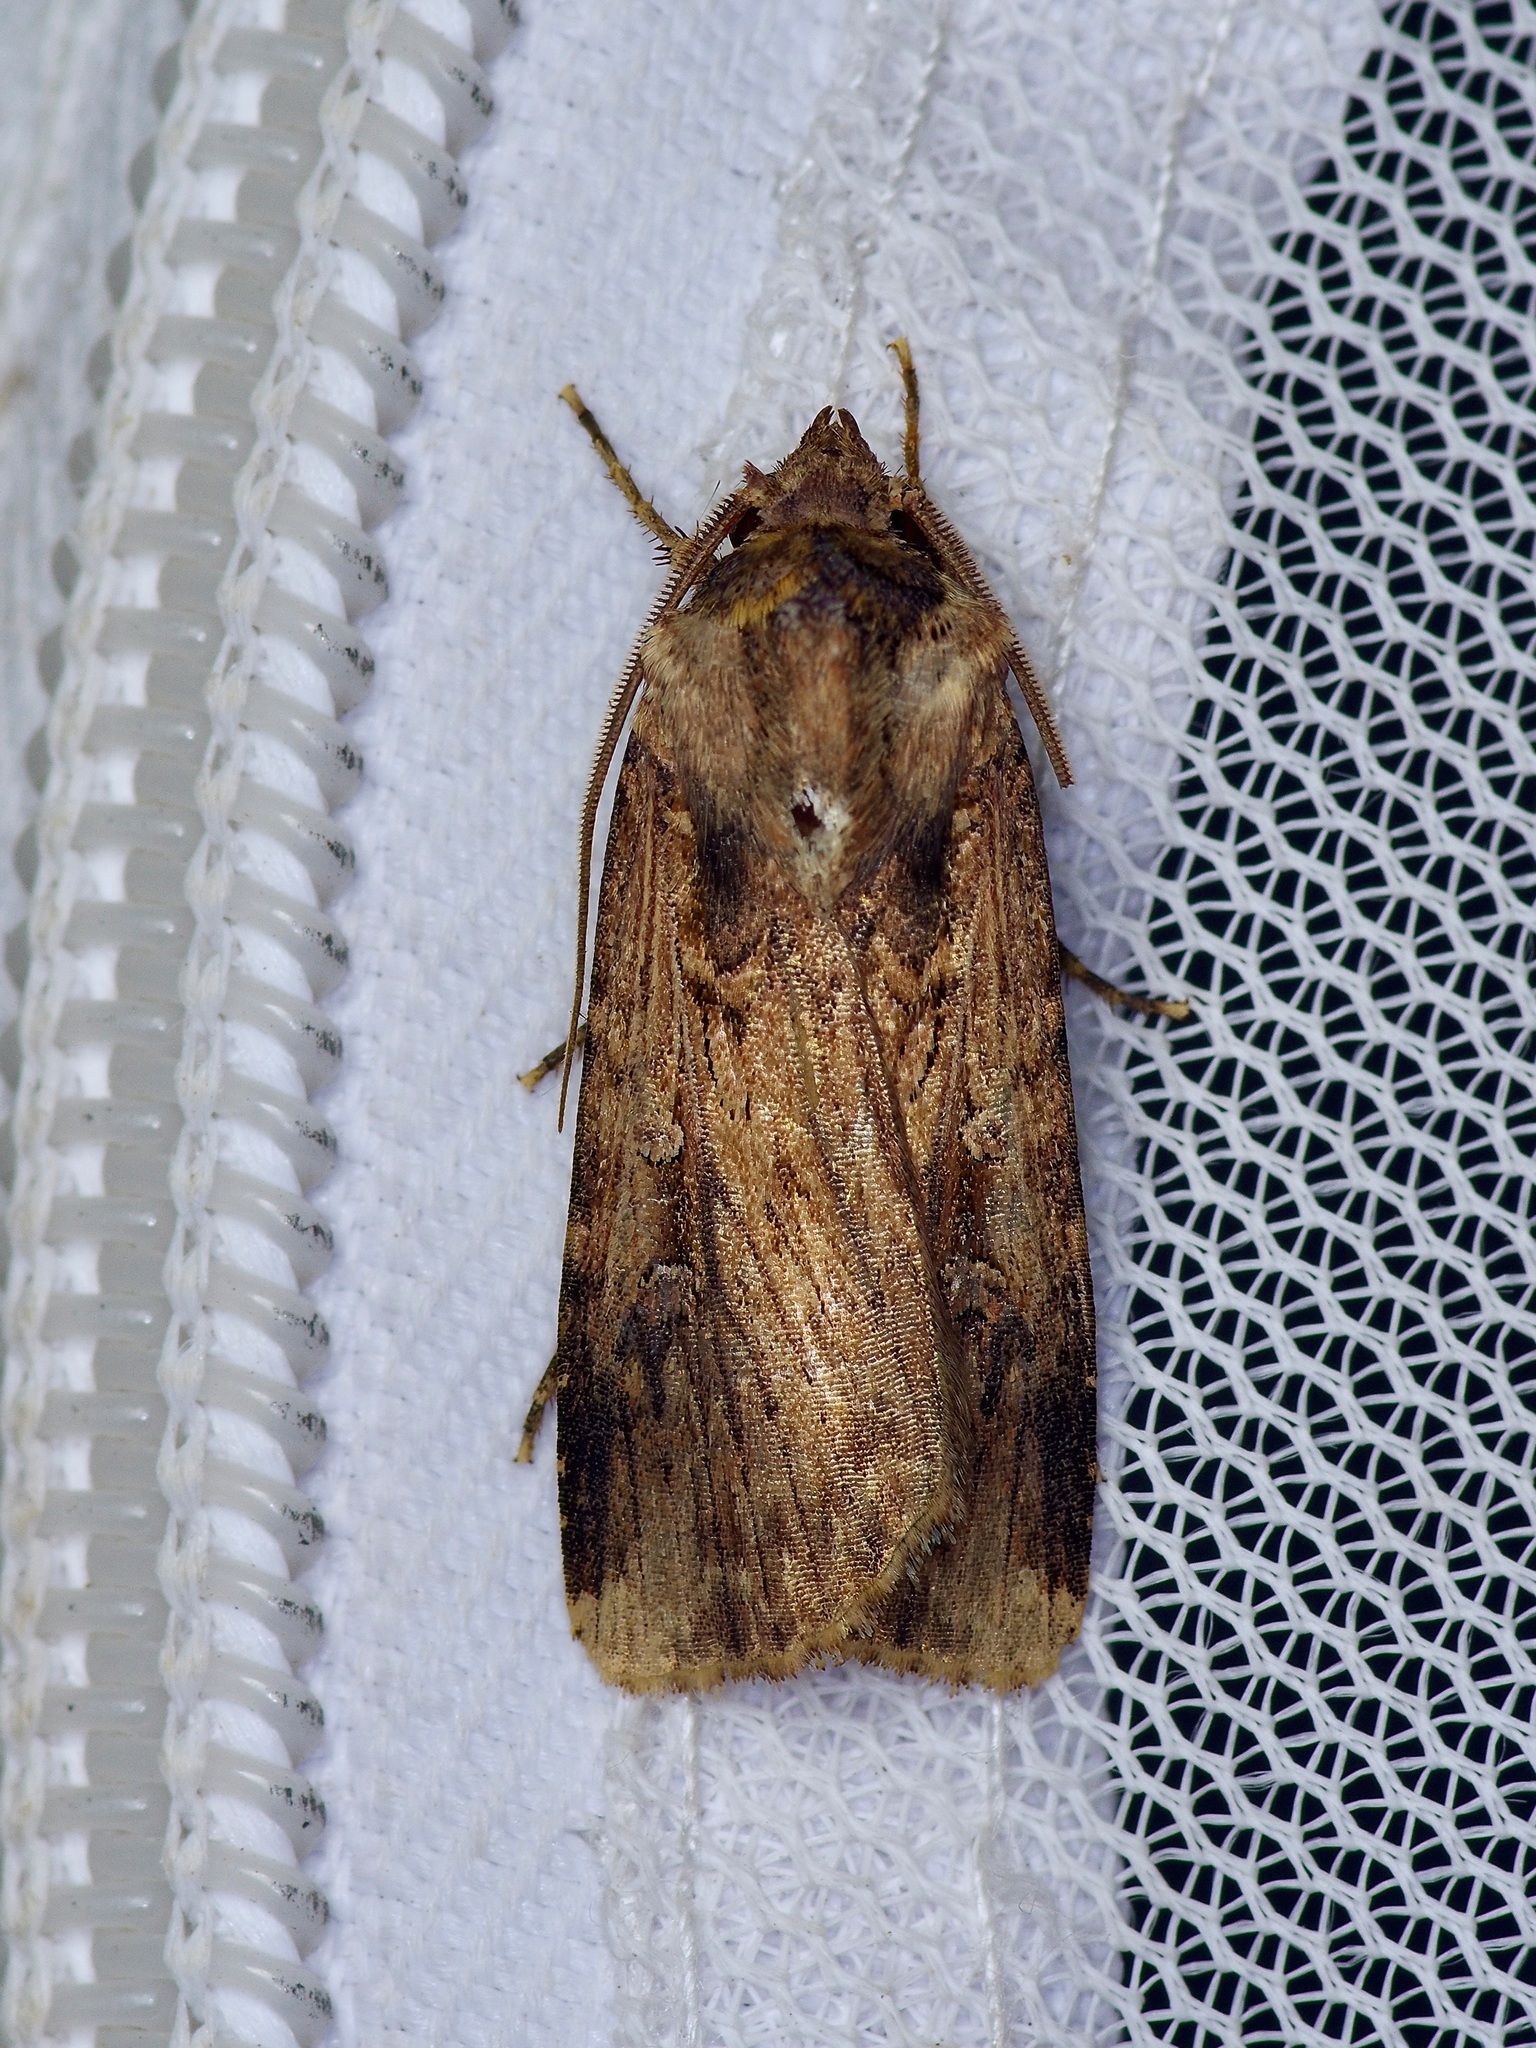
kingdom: Animalia
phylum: Arthropoda
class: Insecta
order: Lepidoptera
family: Noctuidae
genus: Feltia
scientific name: Feltia subterranea
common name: Granulate cutworm
